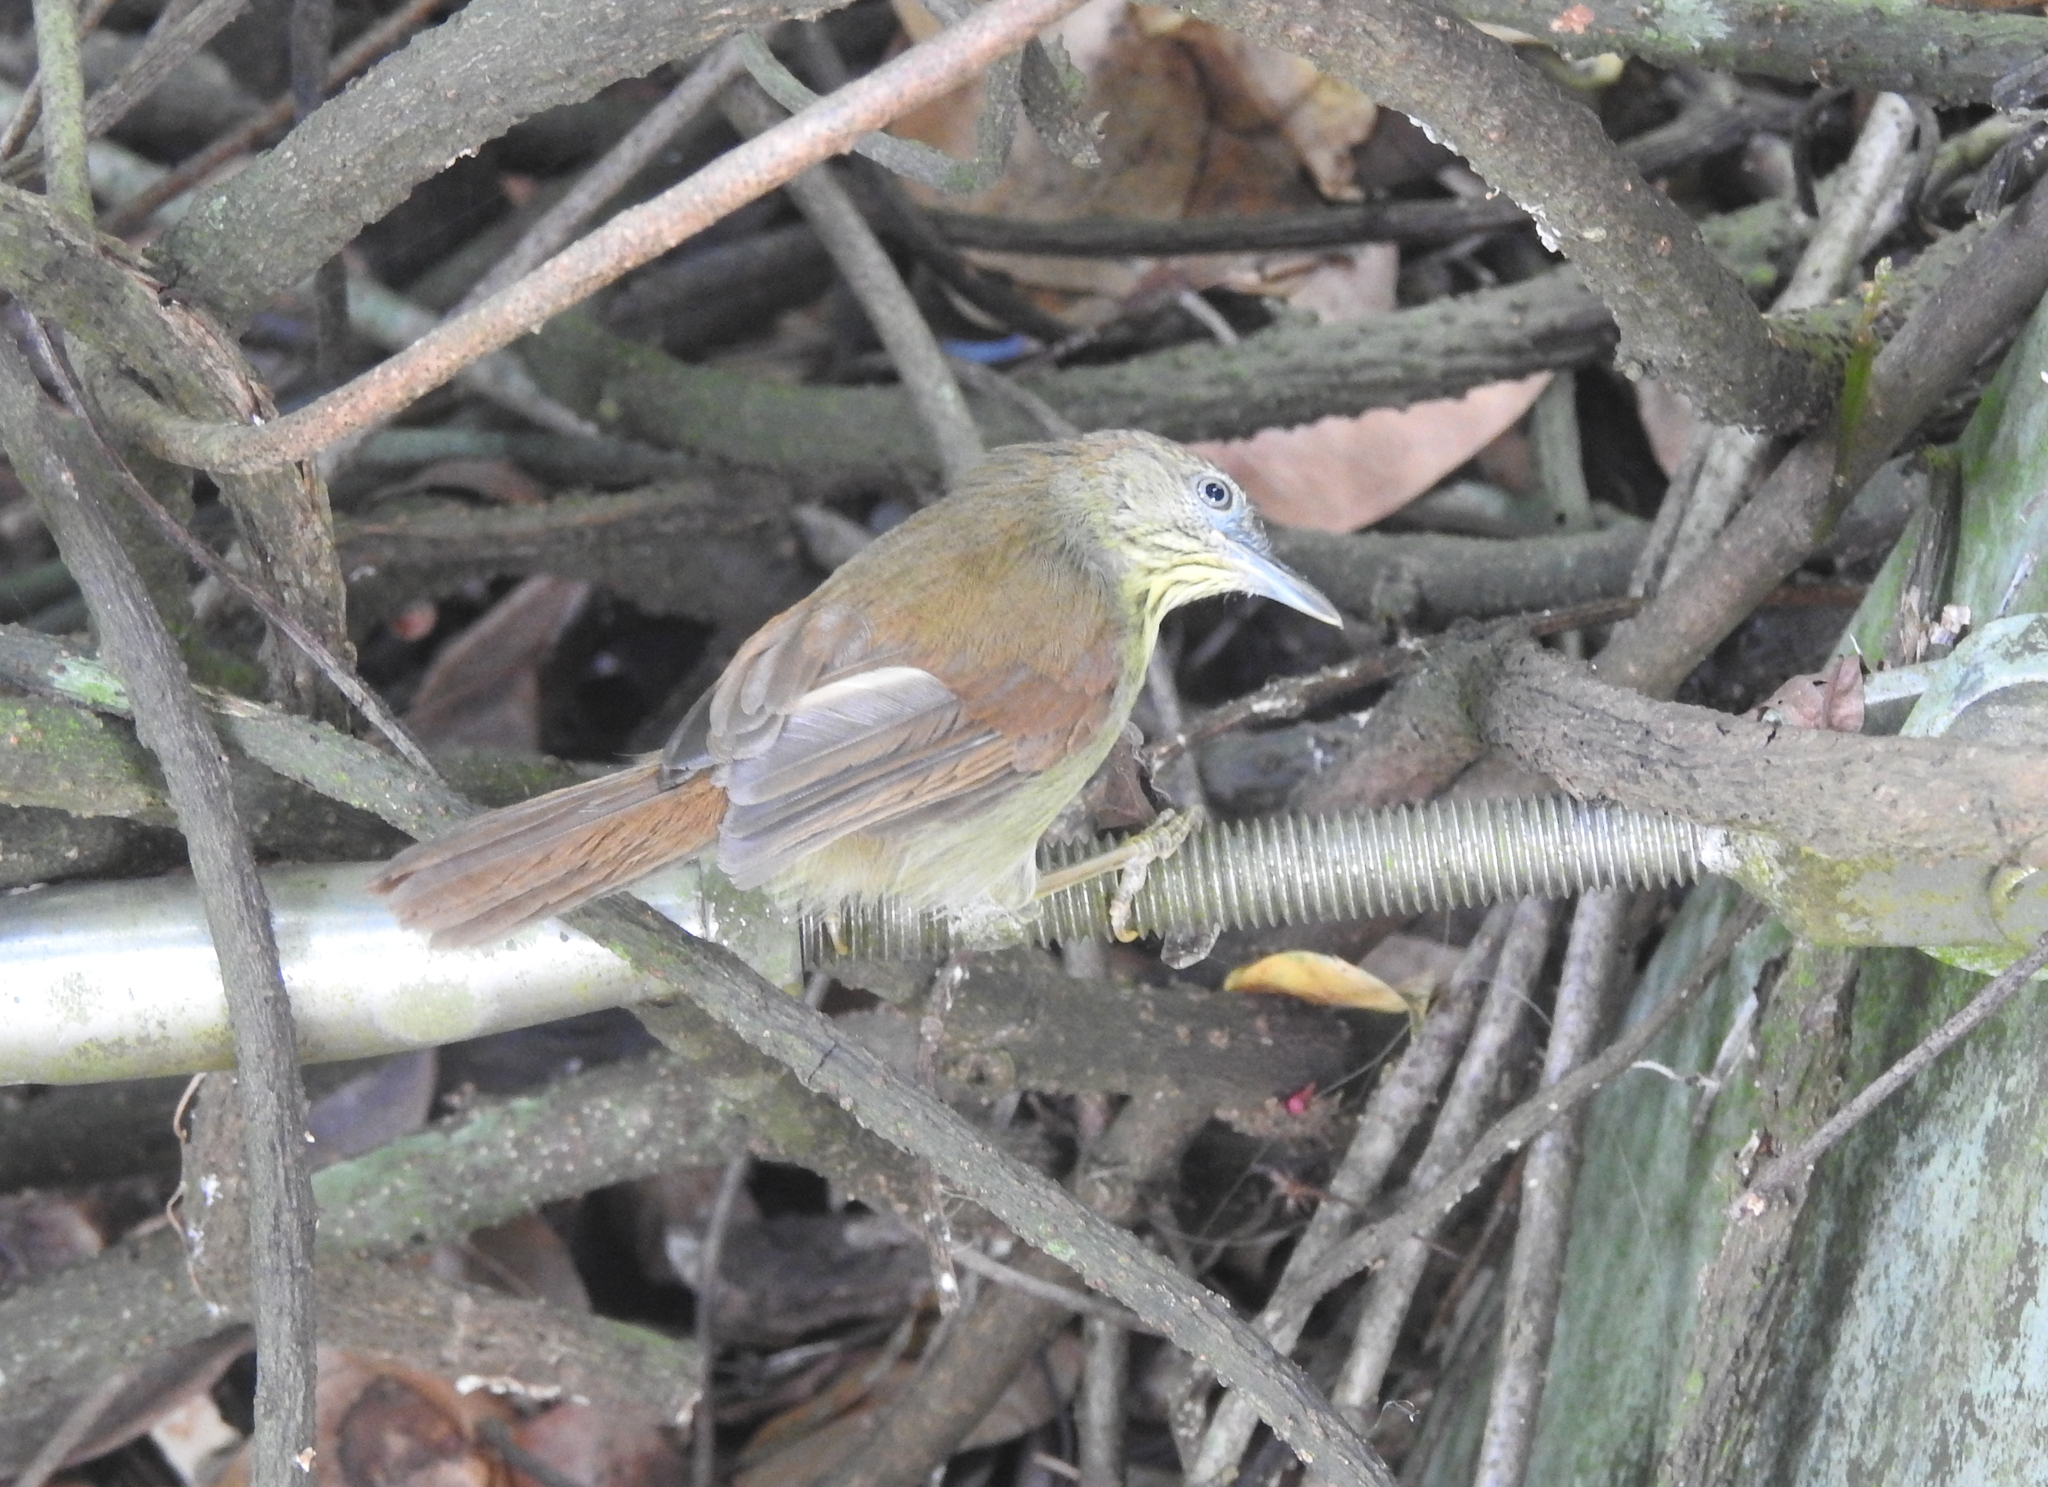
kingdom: Animalia
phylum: Chordata
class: Aves
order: Passeriformes
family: Timaliidae
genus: Macronus
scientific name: Macronus gularis
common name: Striped tit-babbler
